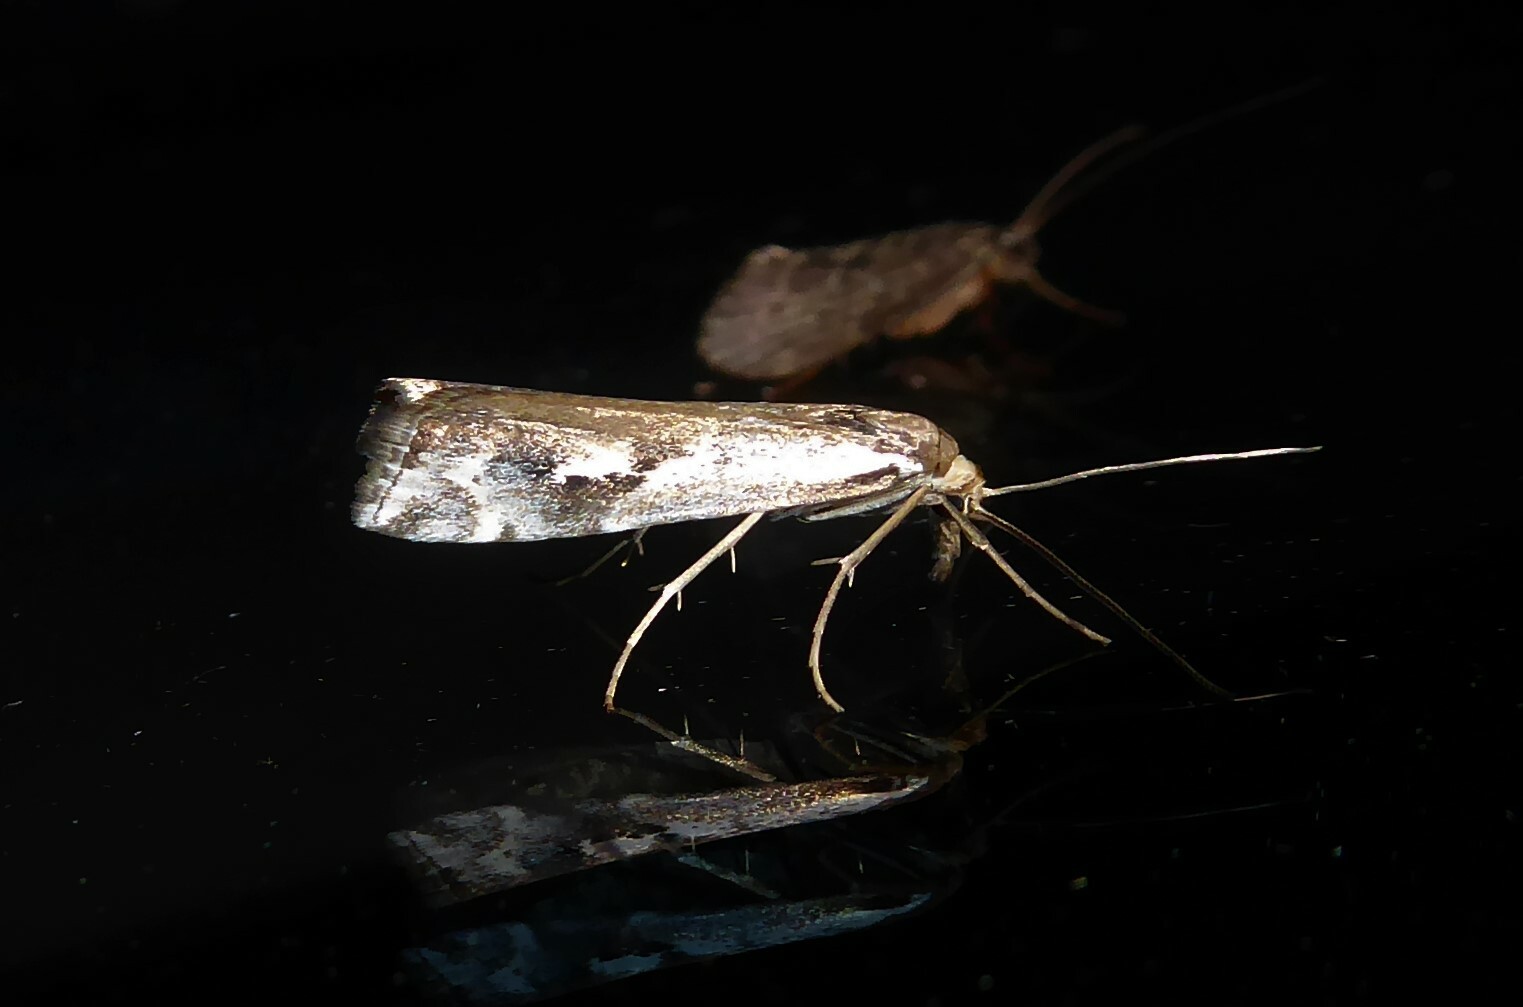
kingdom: Animalia
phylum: Arthropoda
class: Insecta
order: Lepidoptera
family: Crambidae
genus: Orocrambus
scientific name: Orocrambus vulgaris
